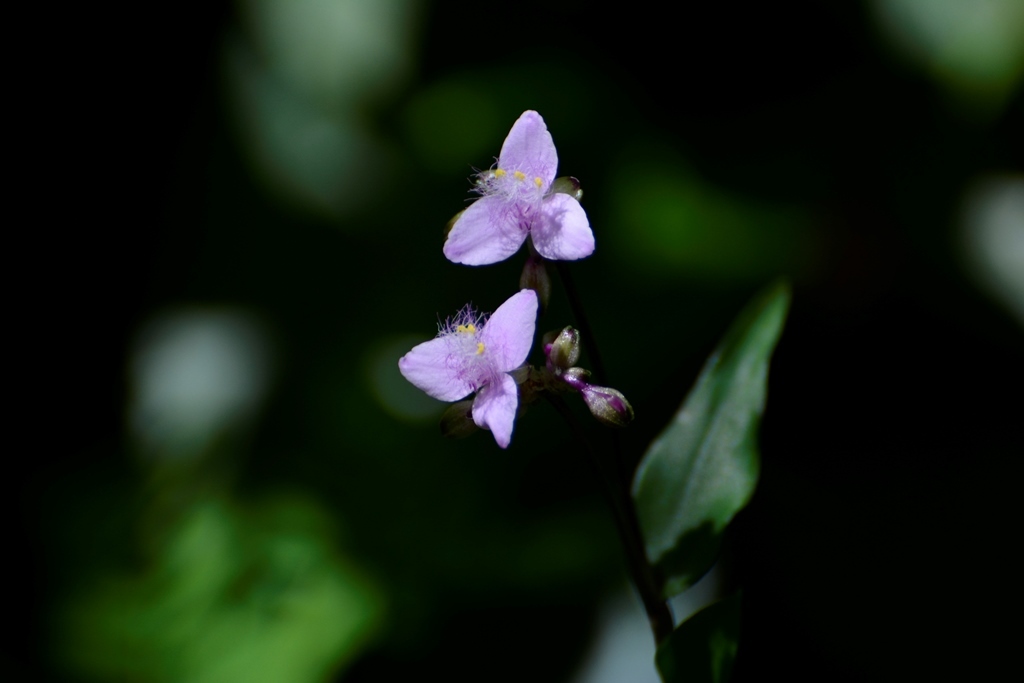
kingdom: Plantae
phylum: Tracheophyta
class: Liliopsida
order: Commelinales
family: Commelinaceae
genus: Callisia
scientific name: Callisia amplexicaulis
